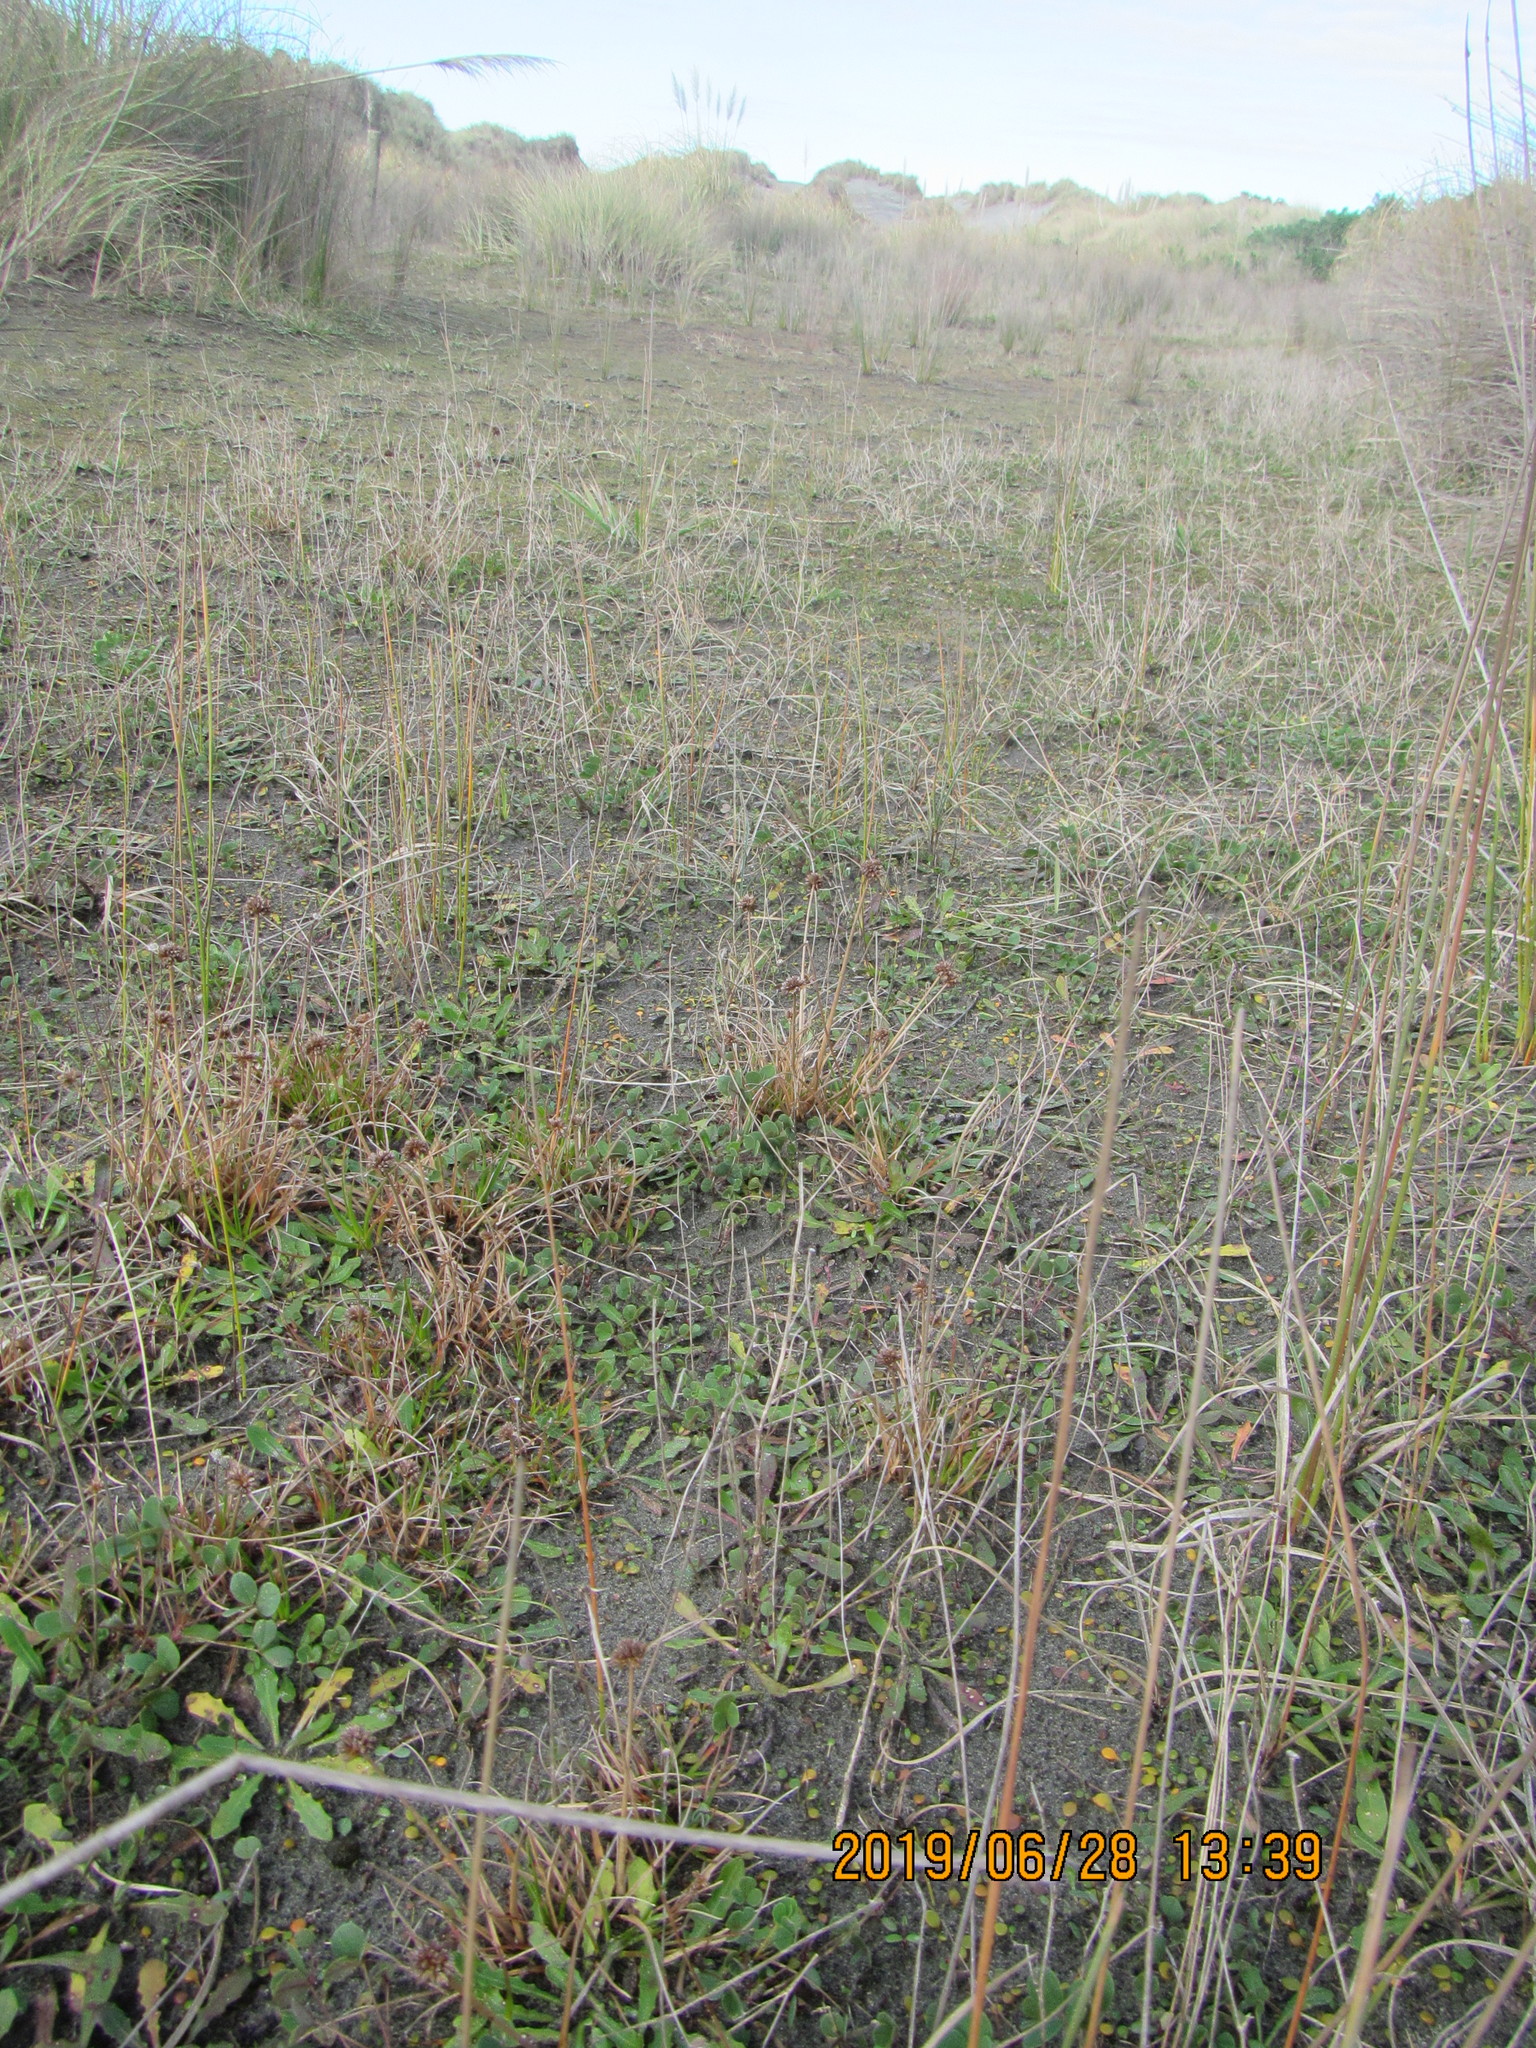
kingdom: Plantae
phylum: Tracheophyta
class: Liliopsida
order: Poales
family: Juncaceae
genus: Juncus
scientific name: Juncus caespiticius
